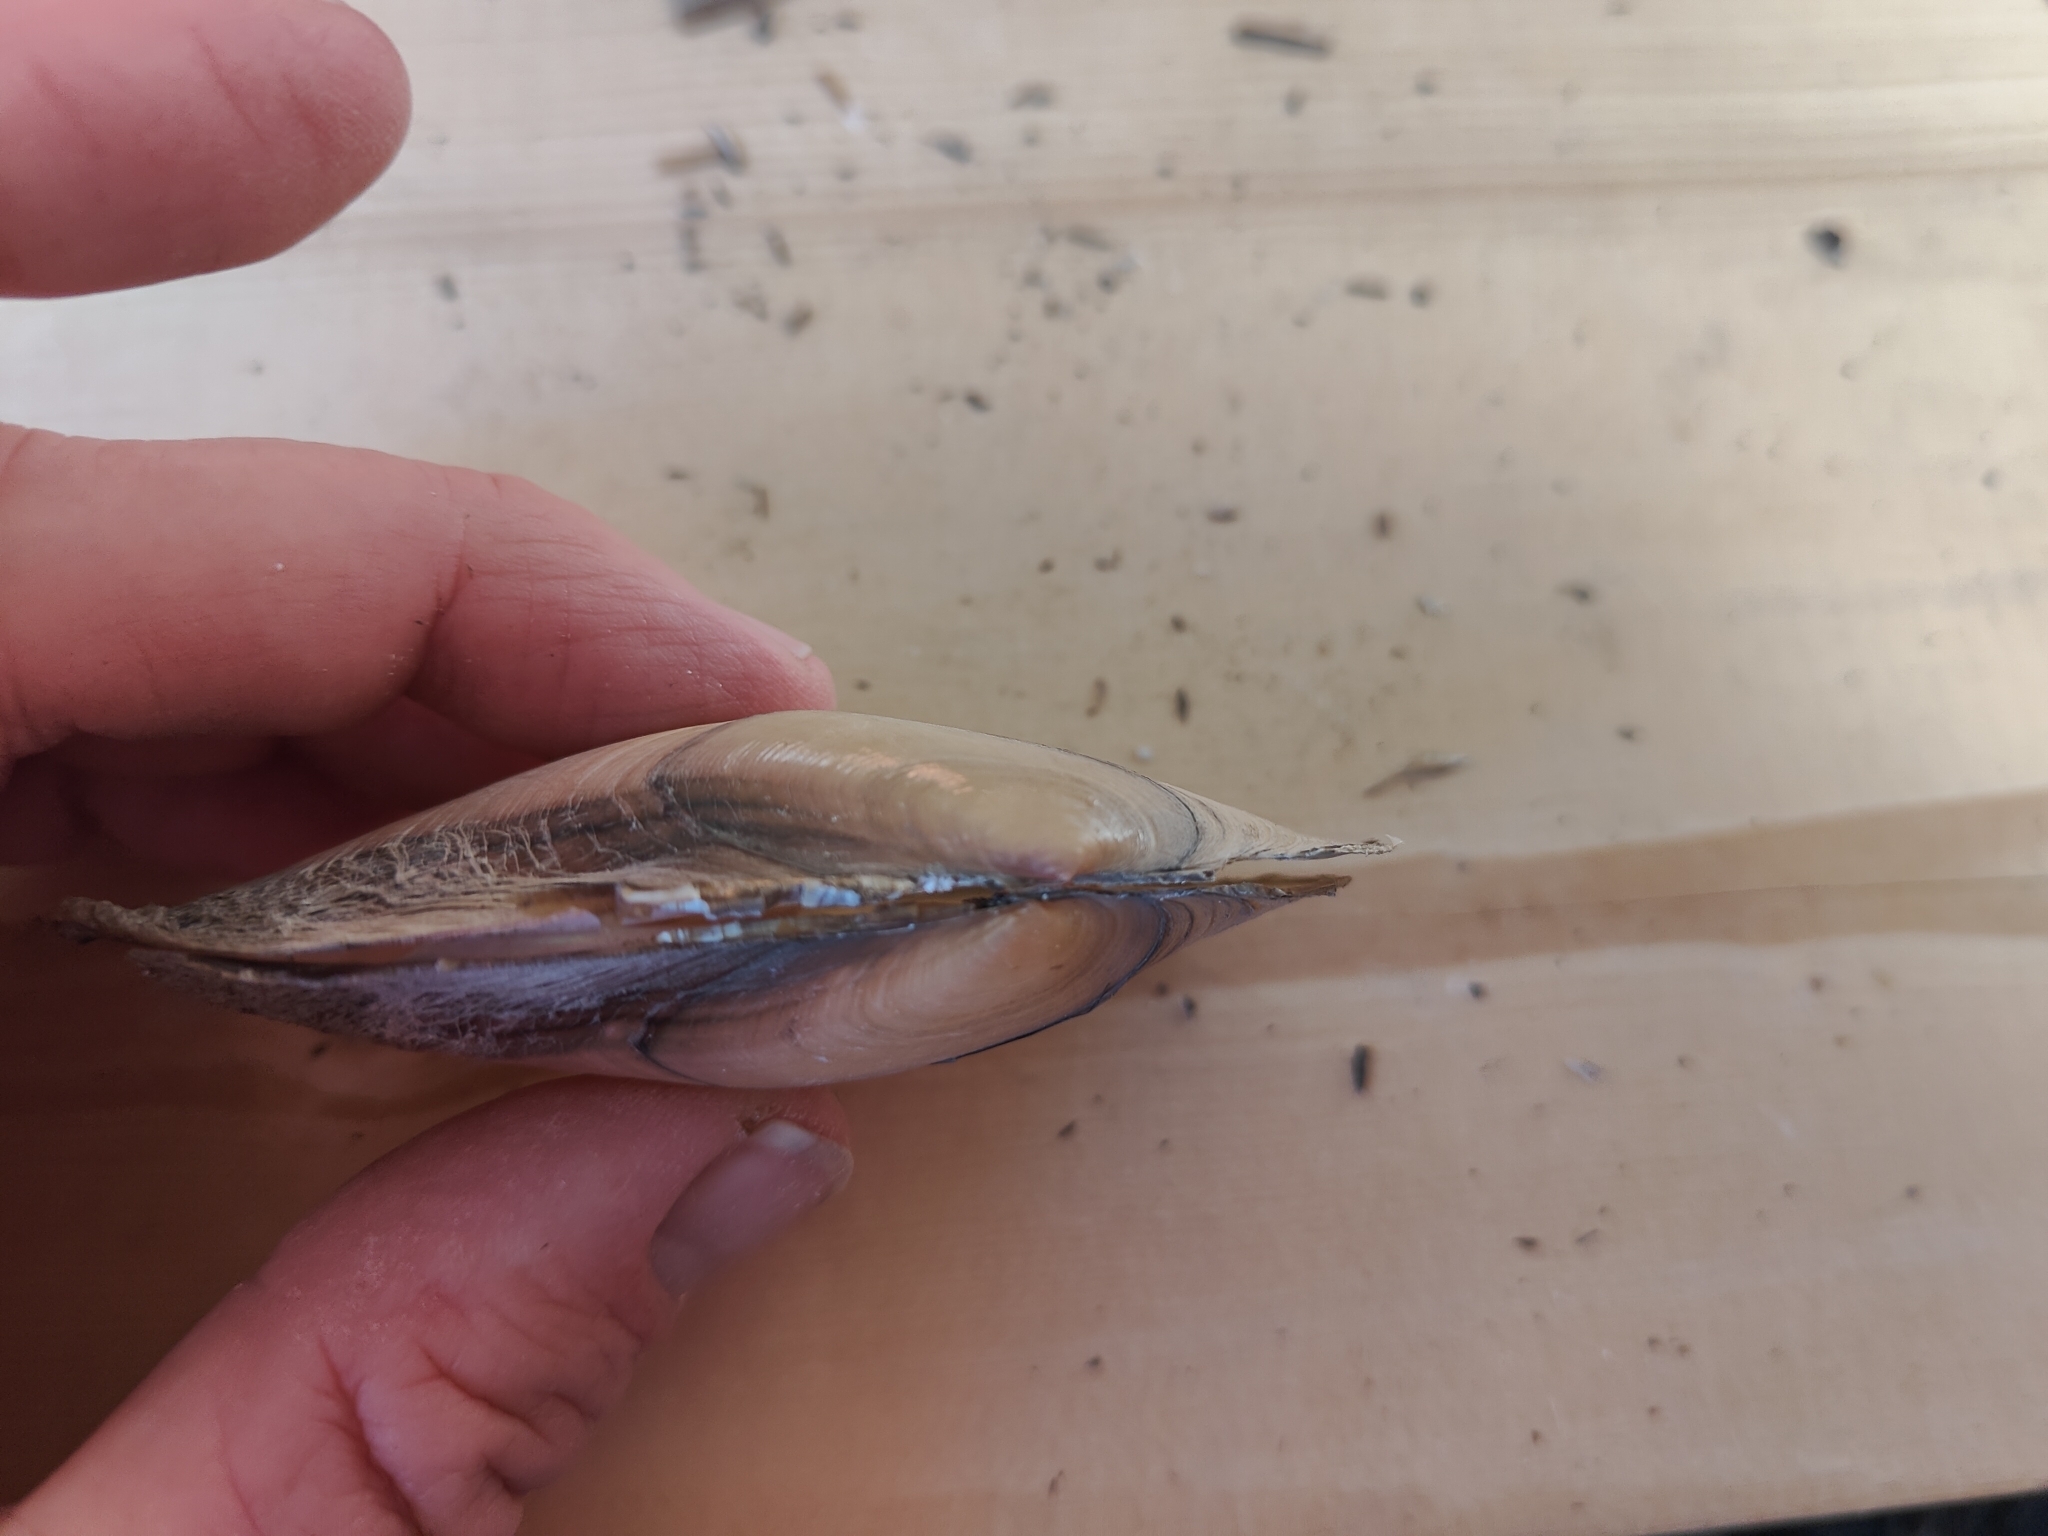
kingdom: Animalia
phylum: Mollusca
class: Bivalvia
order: Unionida
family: Unionidae
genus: Potamilus
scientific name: Potamilus fragilis
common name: Fragile papershell
